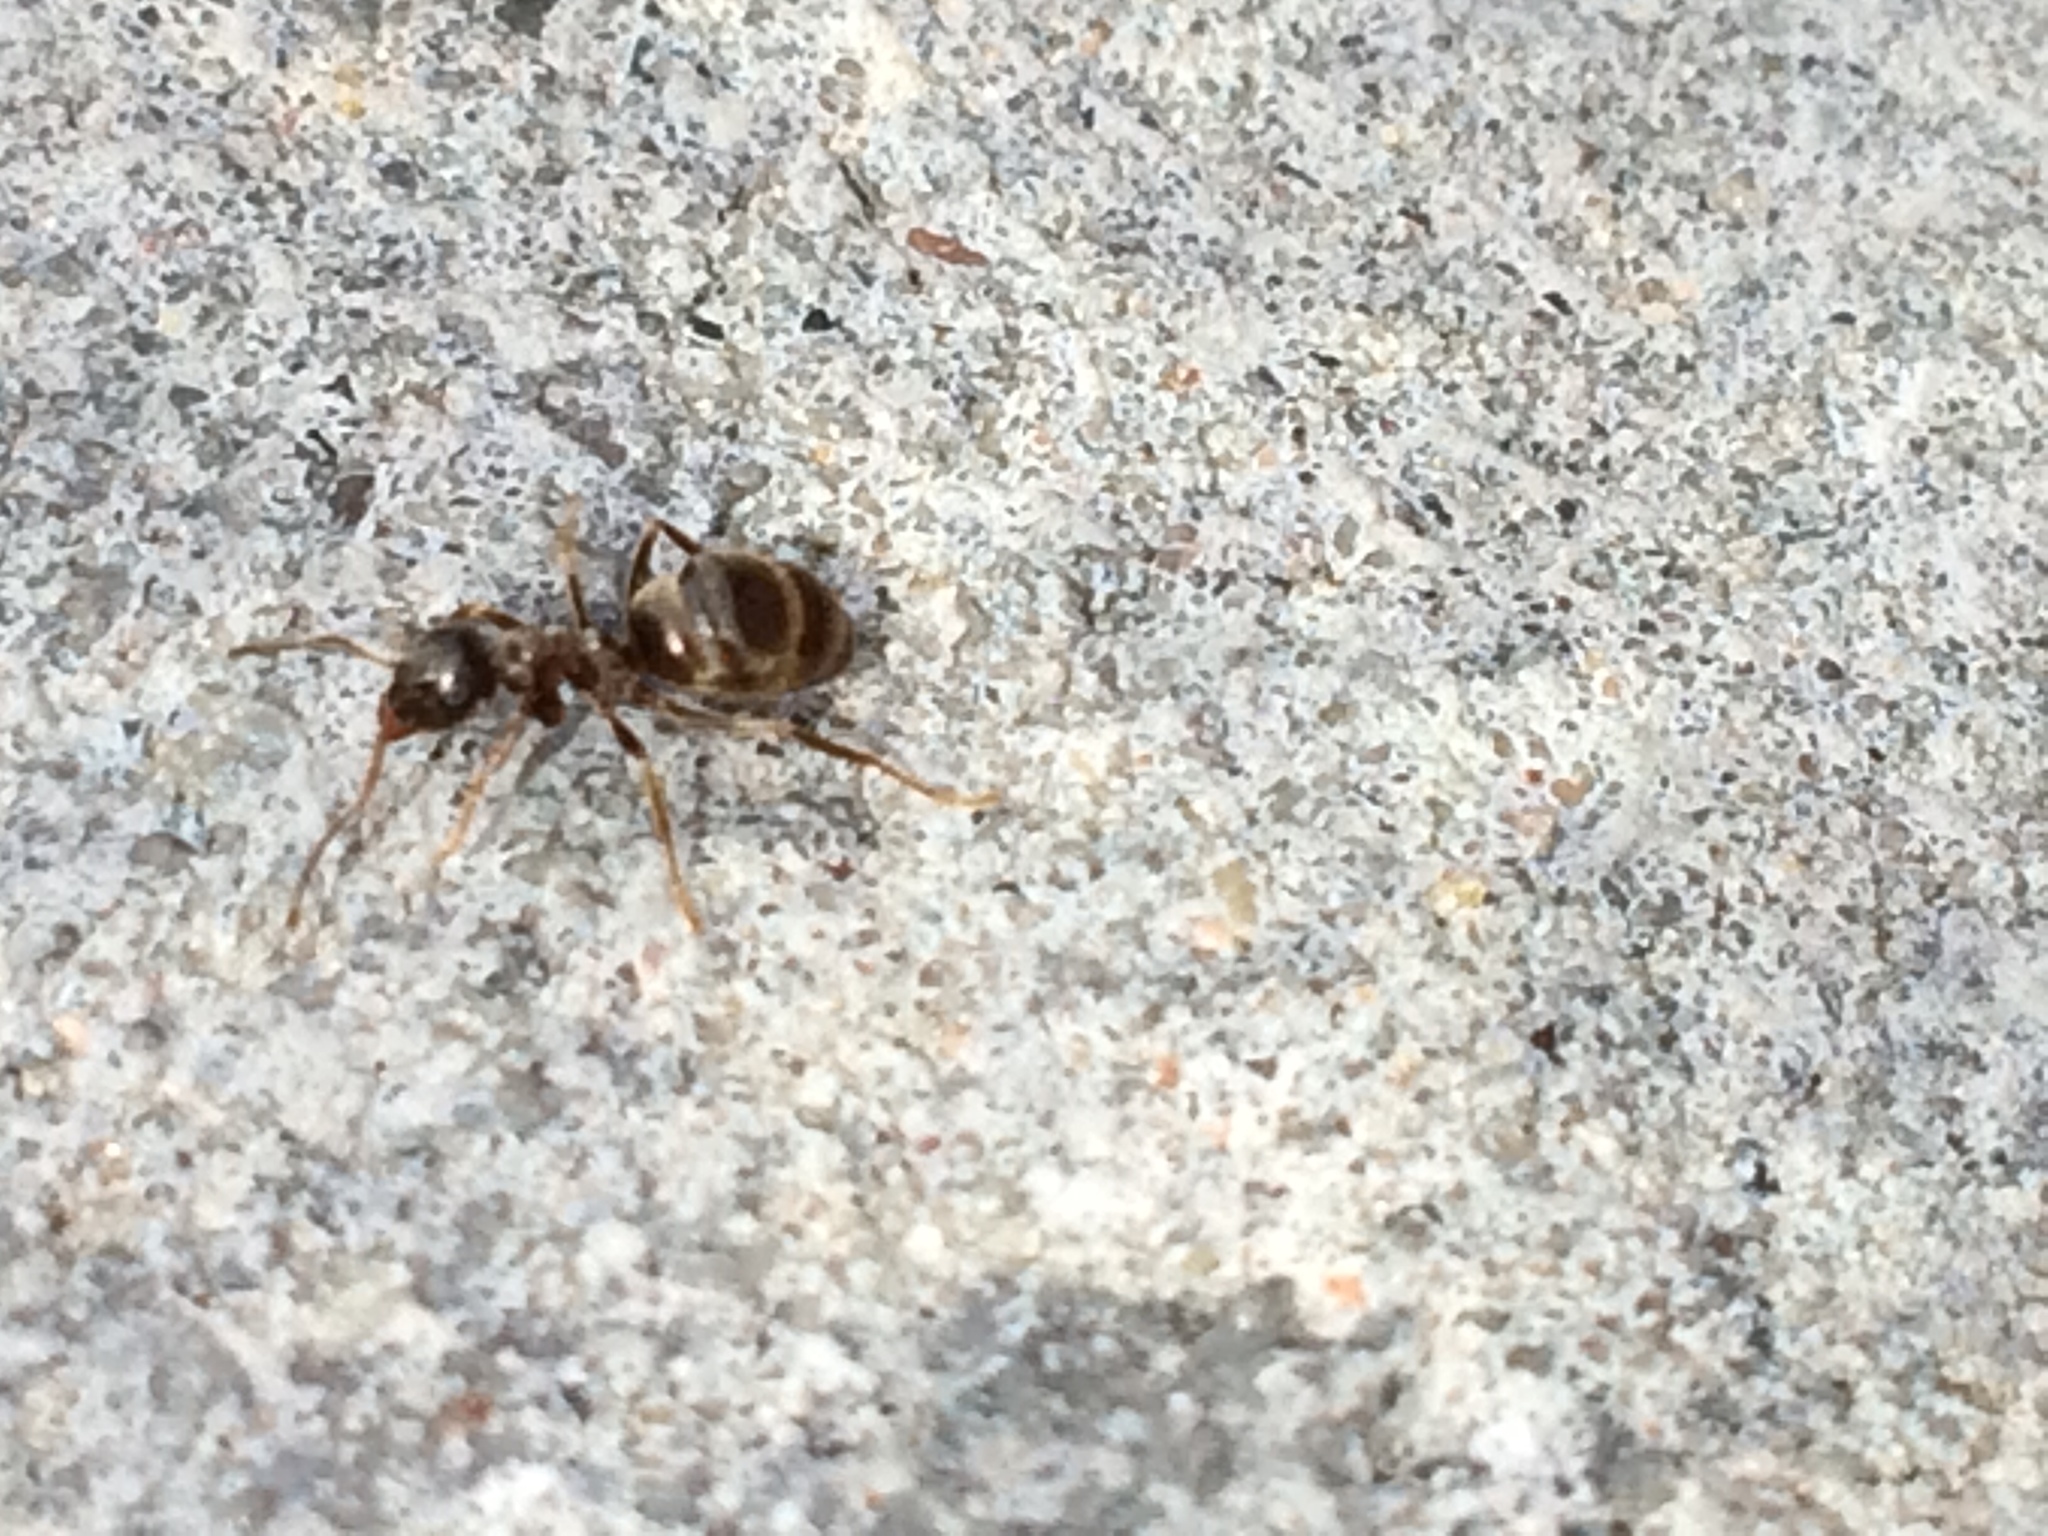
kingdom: Animalia
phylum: Arthropoda
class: Insecta
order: Hymenoptera
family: Formicidae
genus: Lasius
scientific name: Lasius niger
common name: Small black ant
